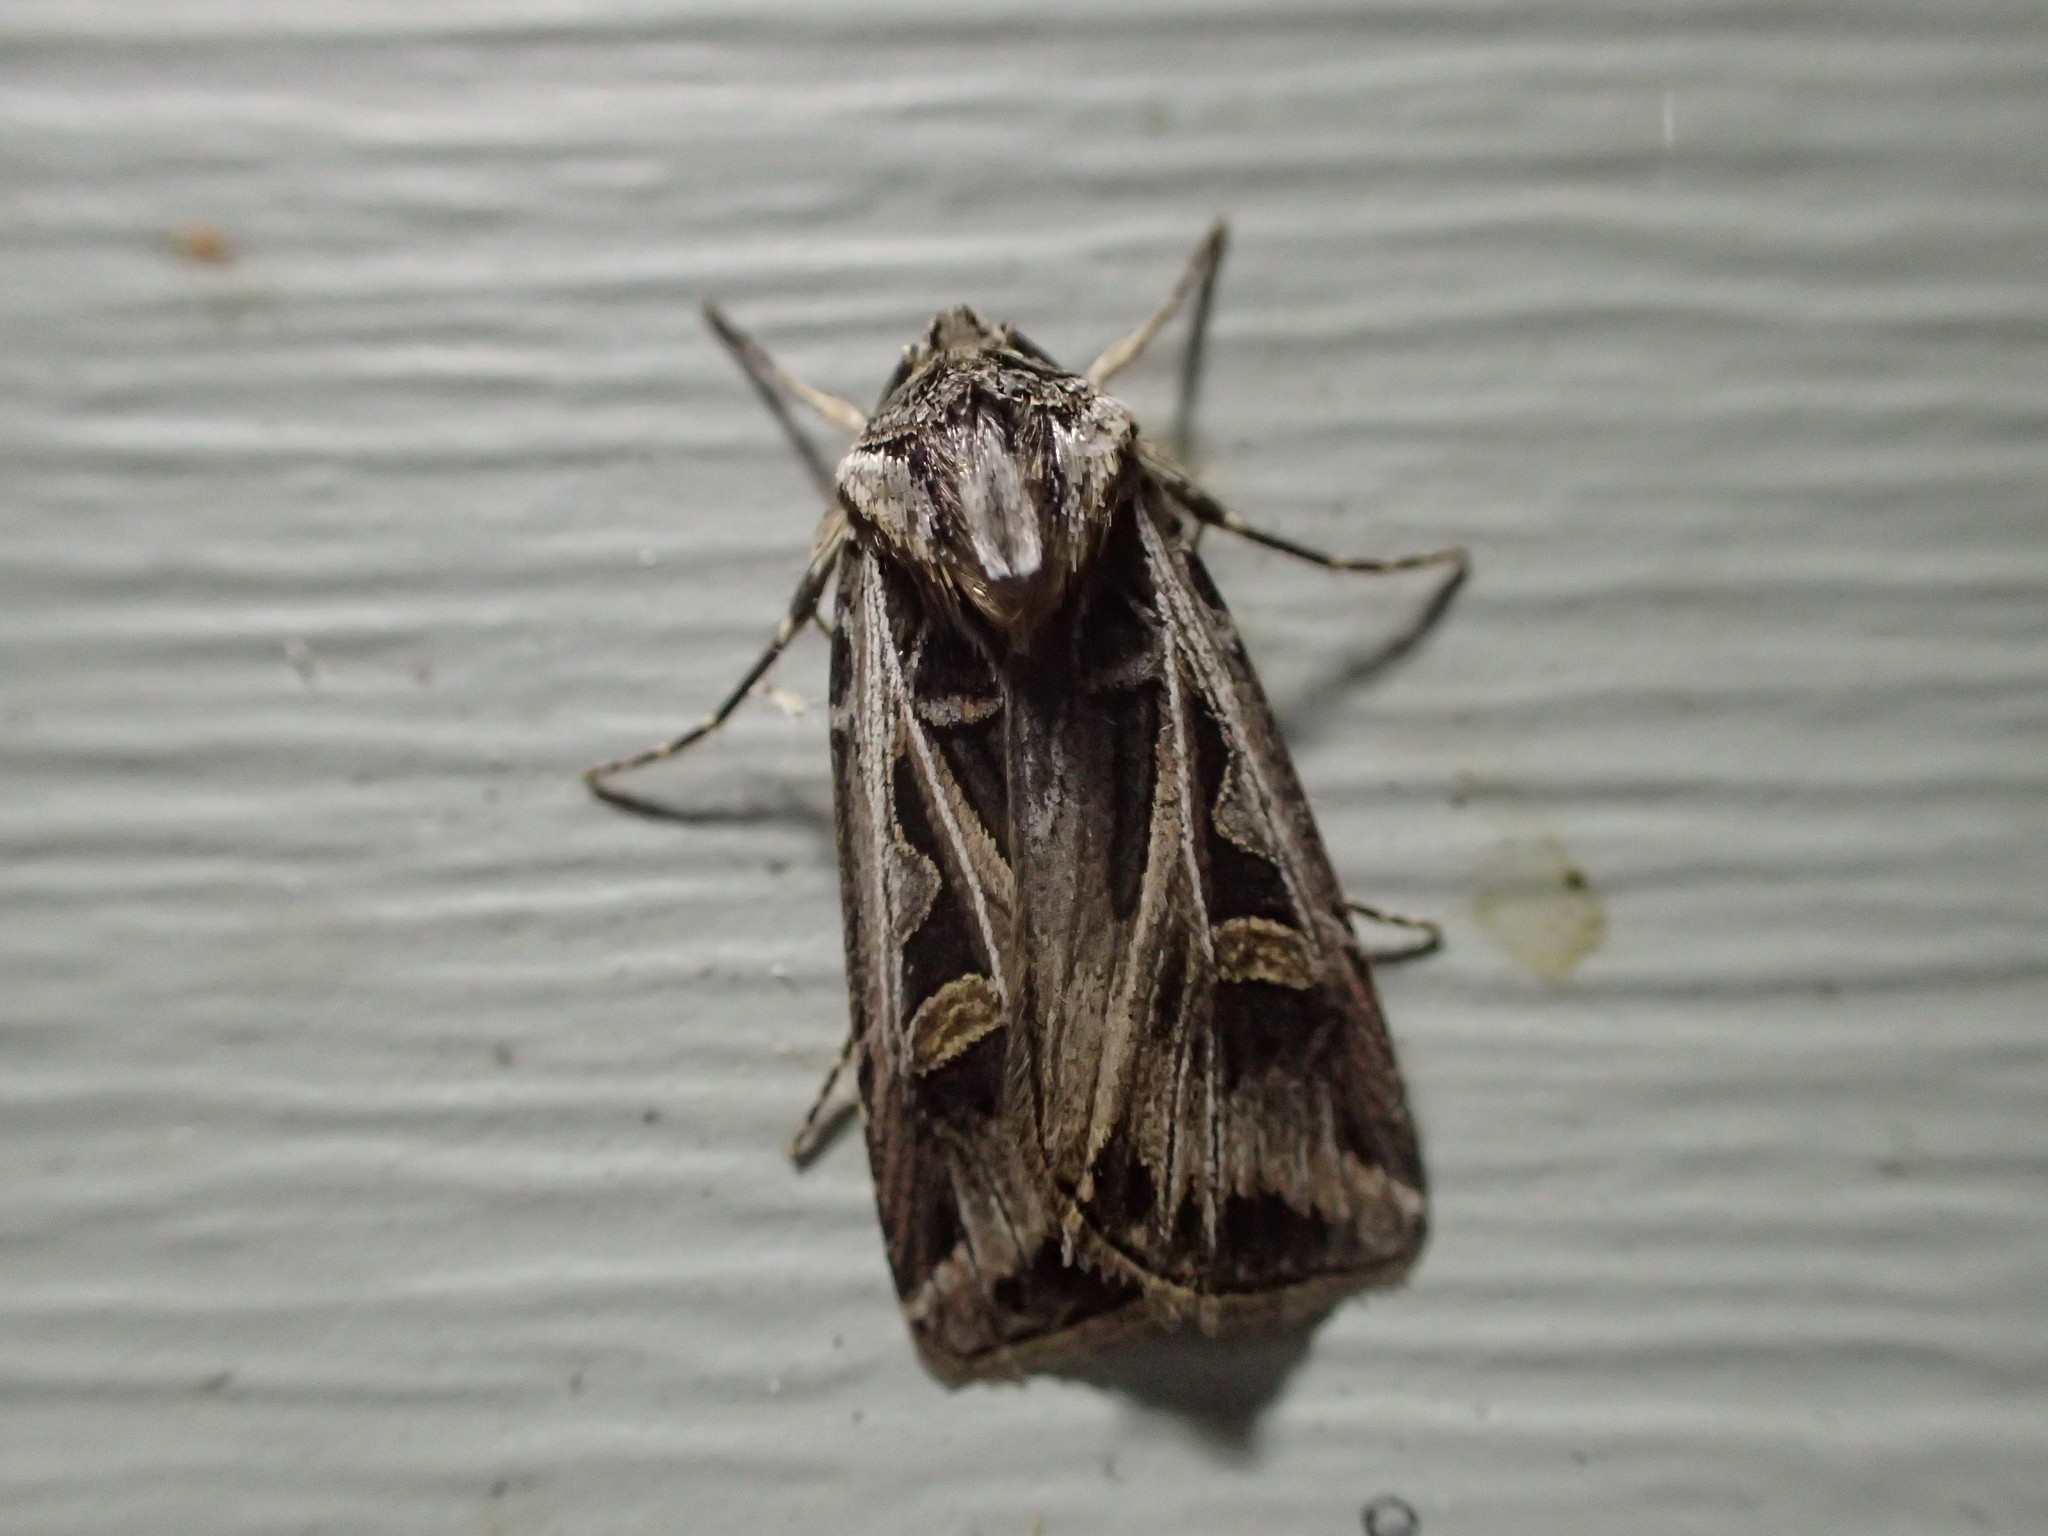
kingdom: Animalia
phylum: Arthropoda
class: Insecta
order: Lepidoptera
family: Noctuidae
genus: Feltia
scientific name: Feltia jaculifera
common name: Dingy cutworm moth
